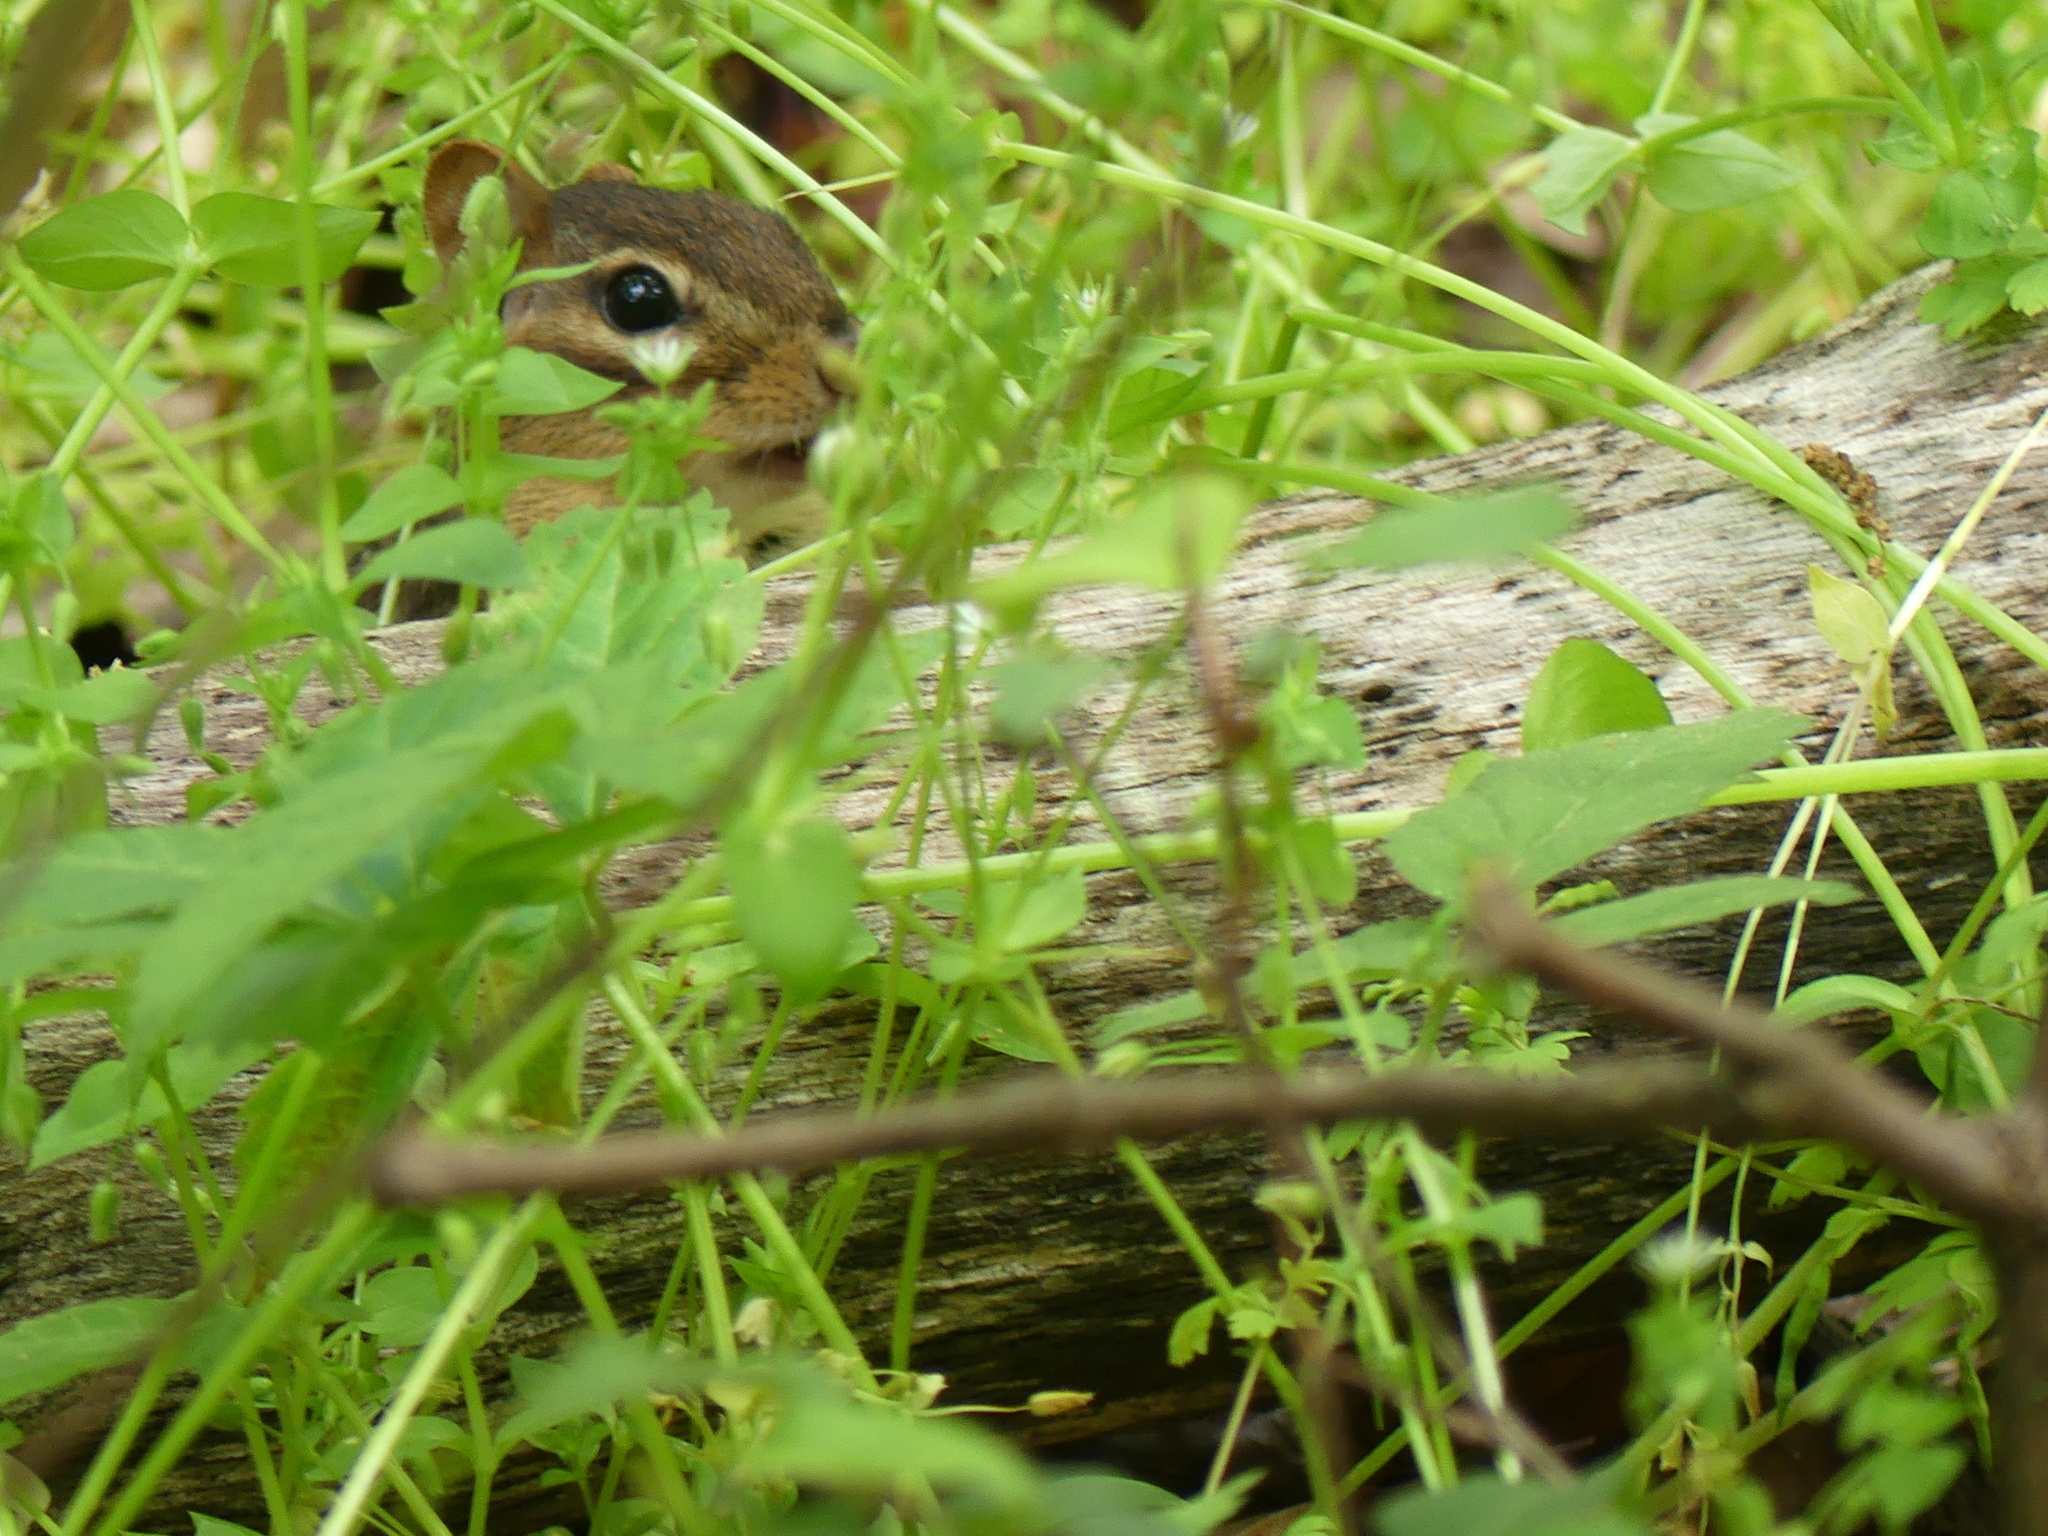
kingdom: Animalia
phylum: Chordata
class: Mammalia
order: Rodentia
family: Sciuridae
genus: Tamias
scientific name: Tamias striatus
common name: Eastern chipmunk
